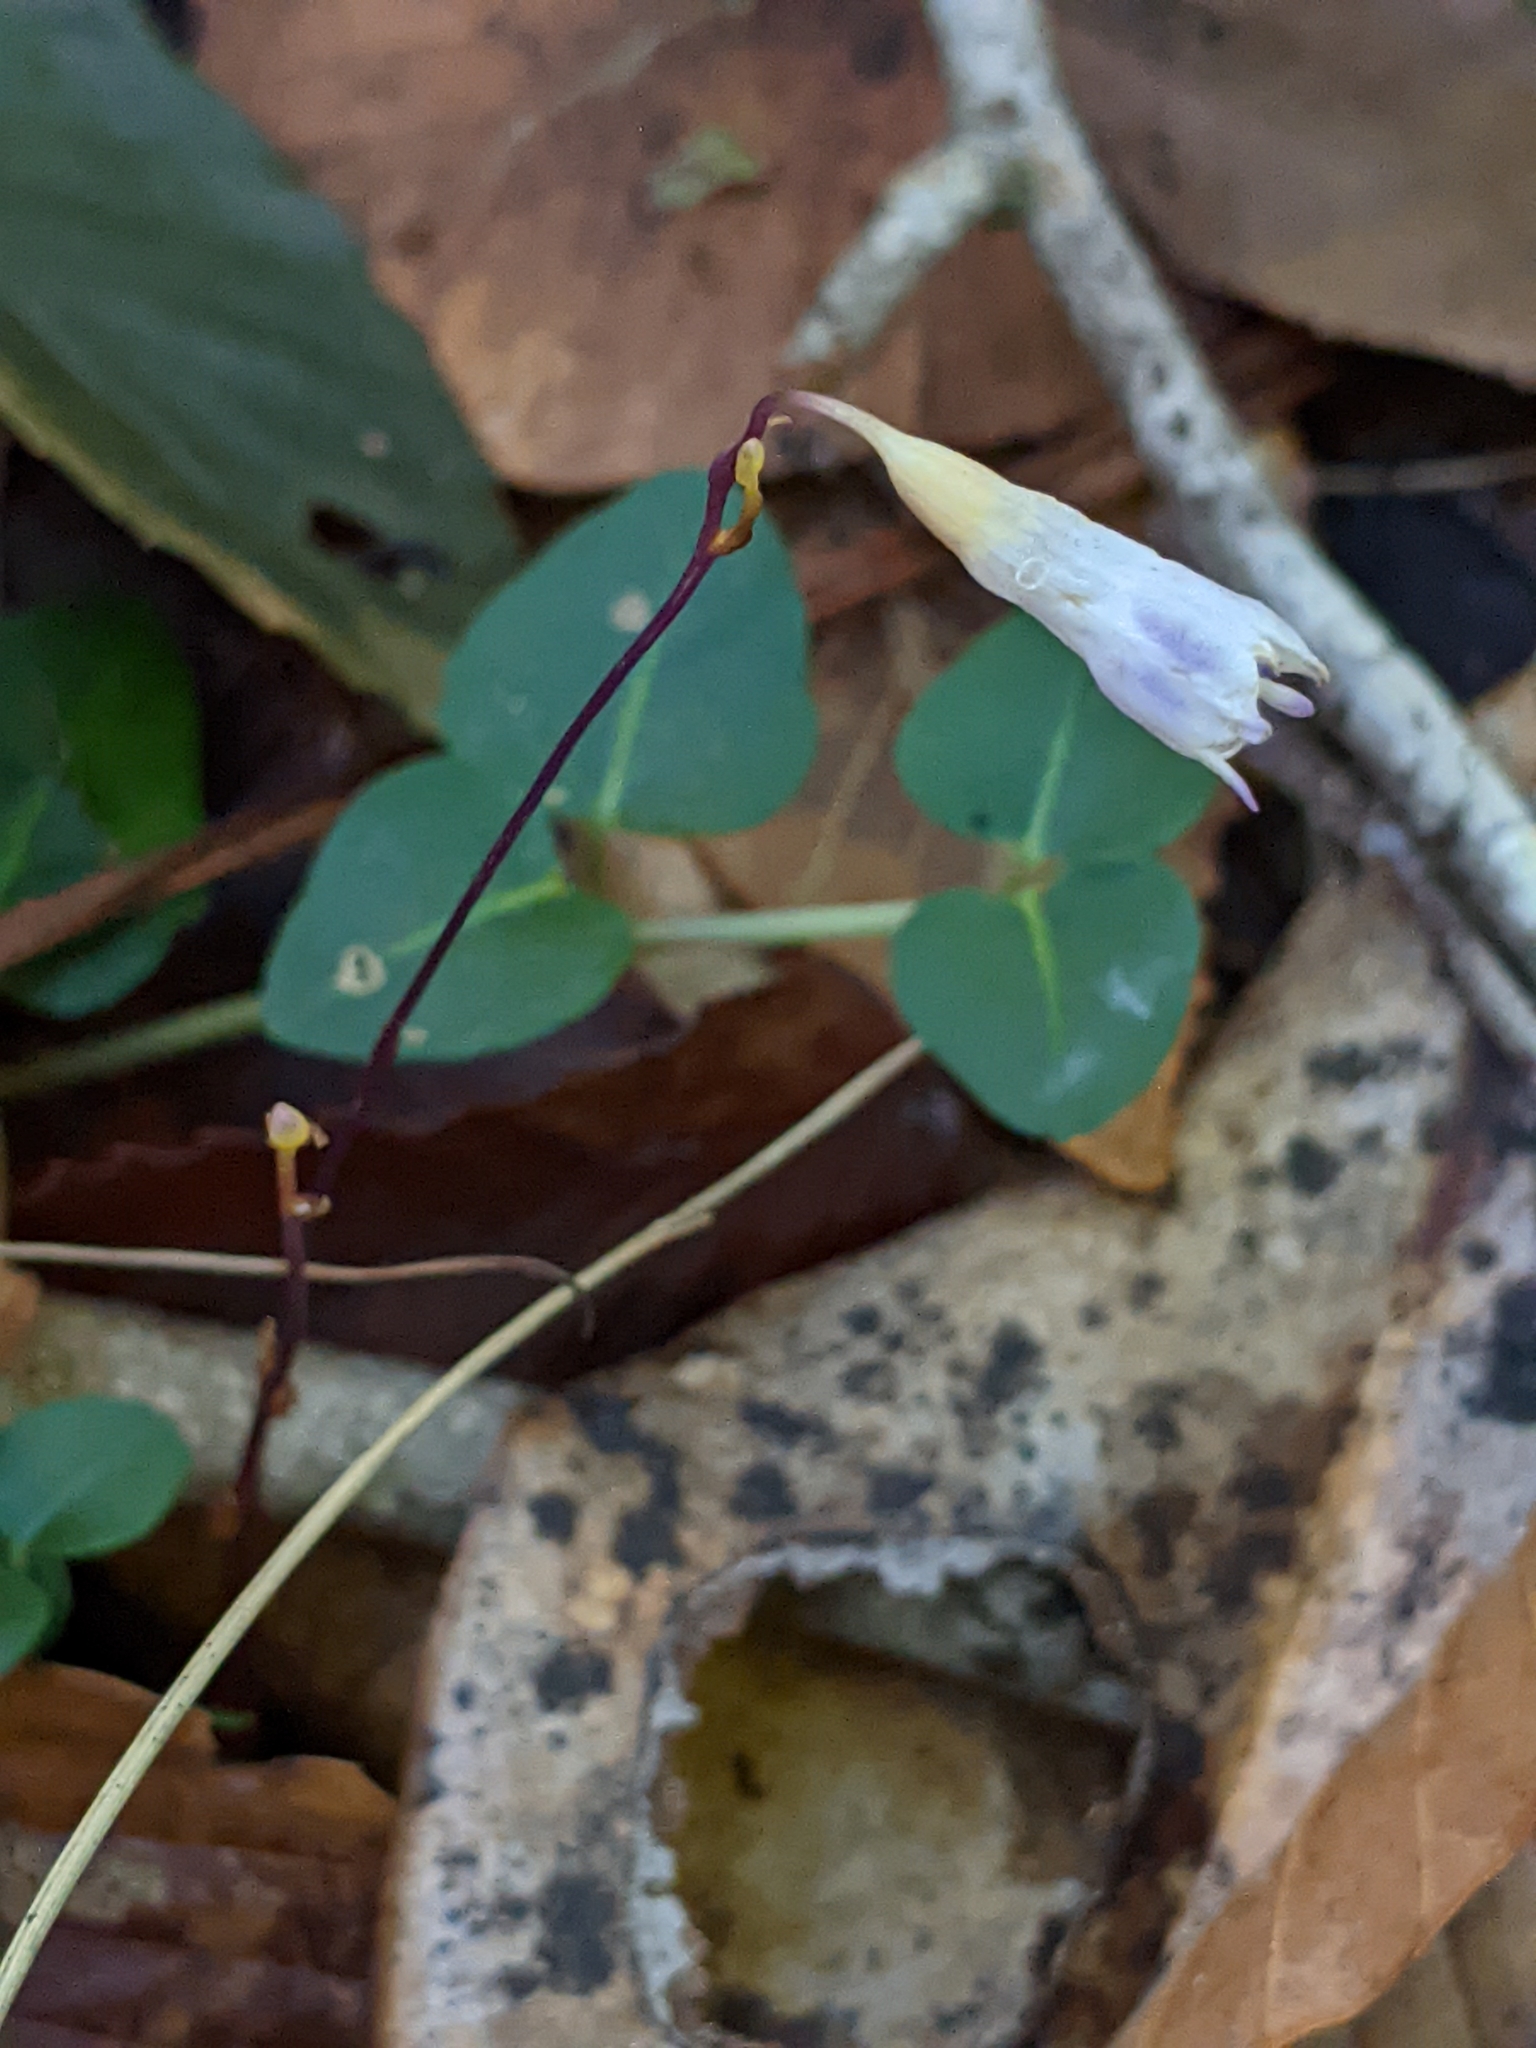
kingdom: Plantae
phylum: Tracheophyta
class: Liliopsida
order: Dioscoreales
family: Burmanniaceae
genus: Apteria
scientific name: Apteria aphylla
